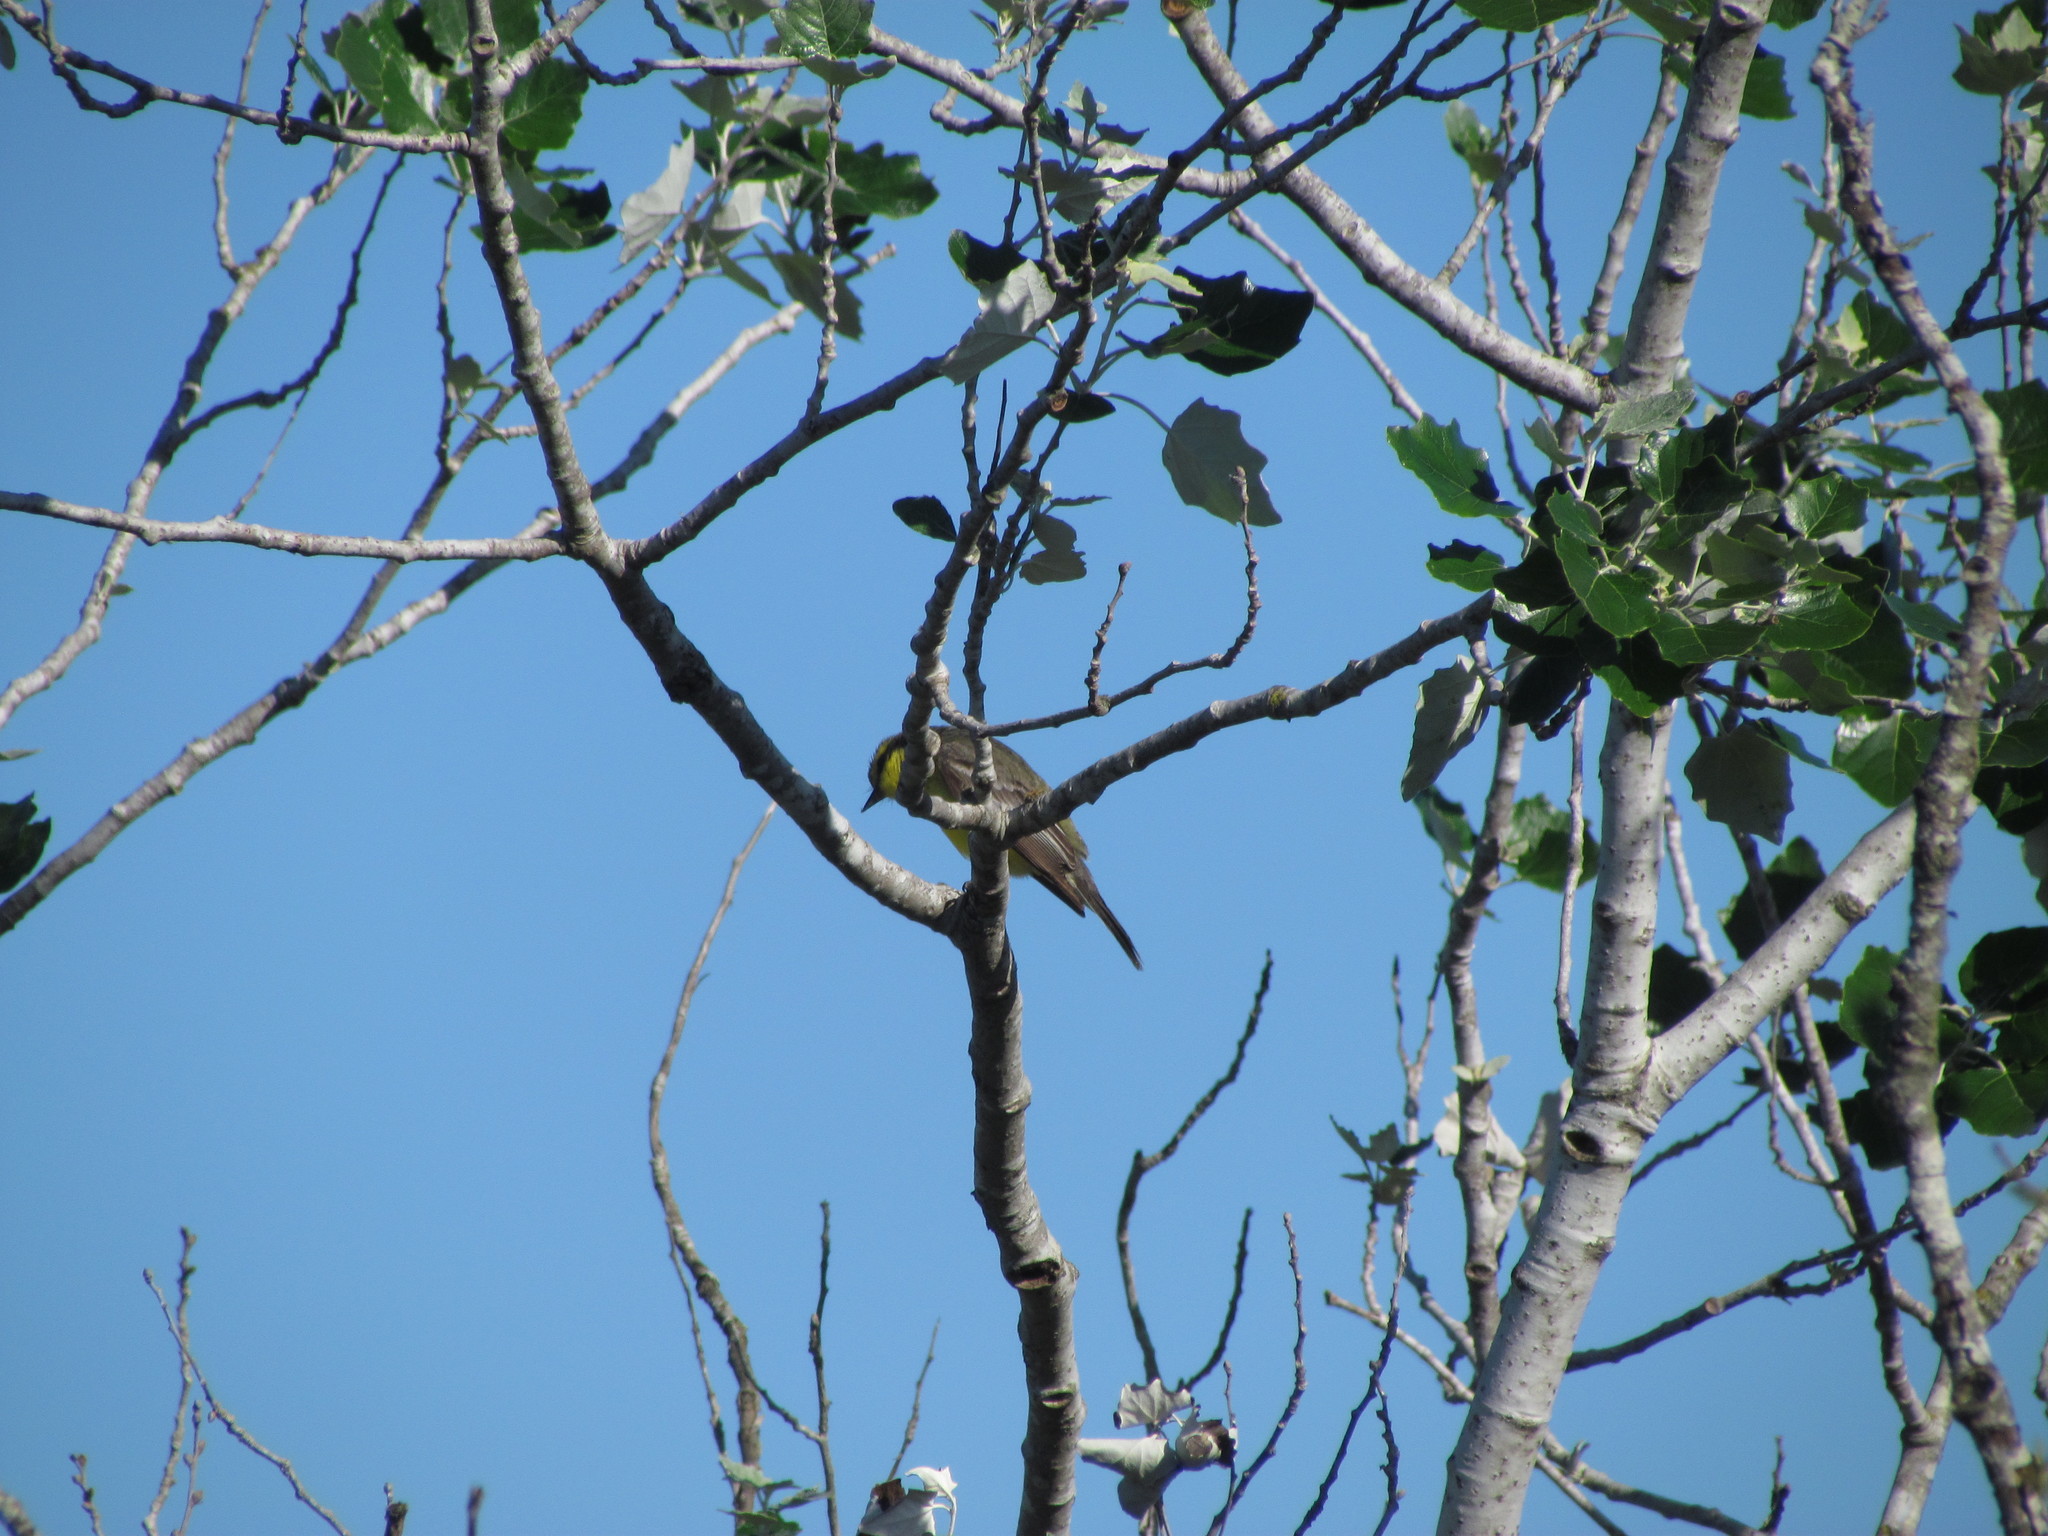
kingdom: Animalia
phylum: Chordata
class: Aves
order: Passeriformes
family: Tyrannidae
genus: Satrapa
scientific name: Satrapa icterophrys
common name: Yellow-browed tyrant
